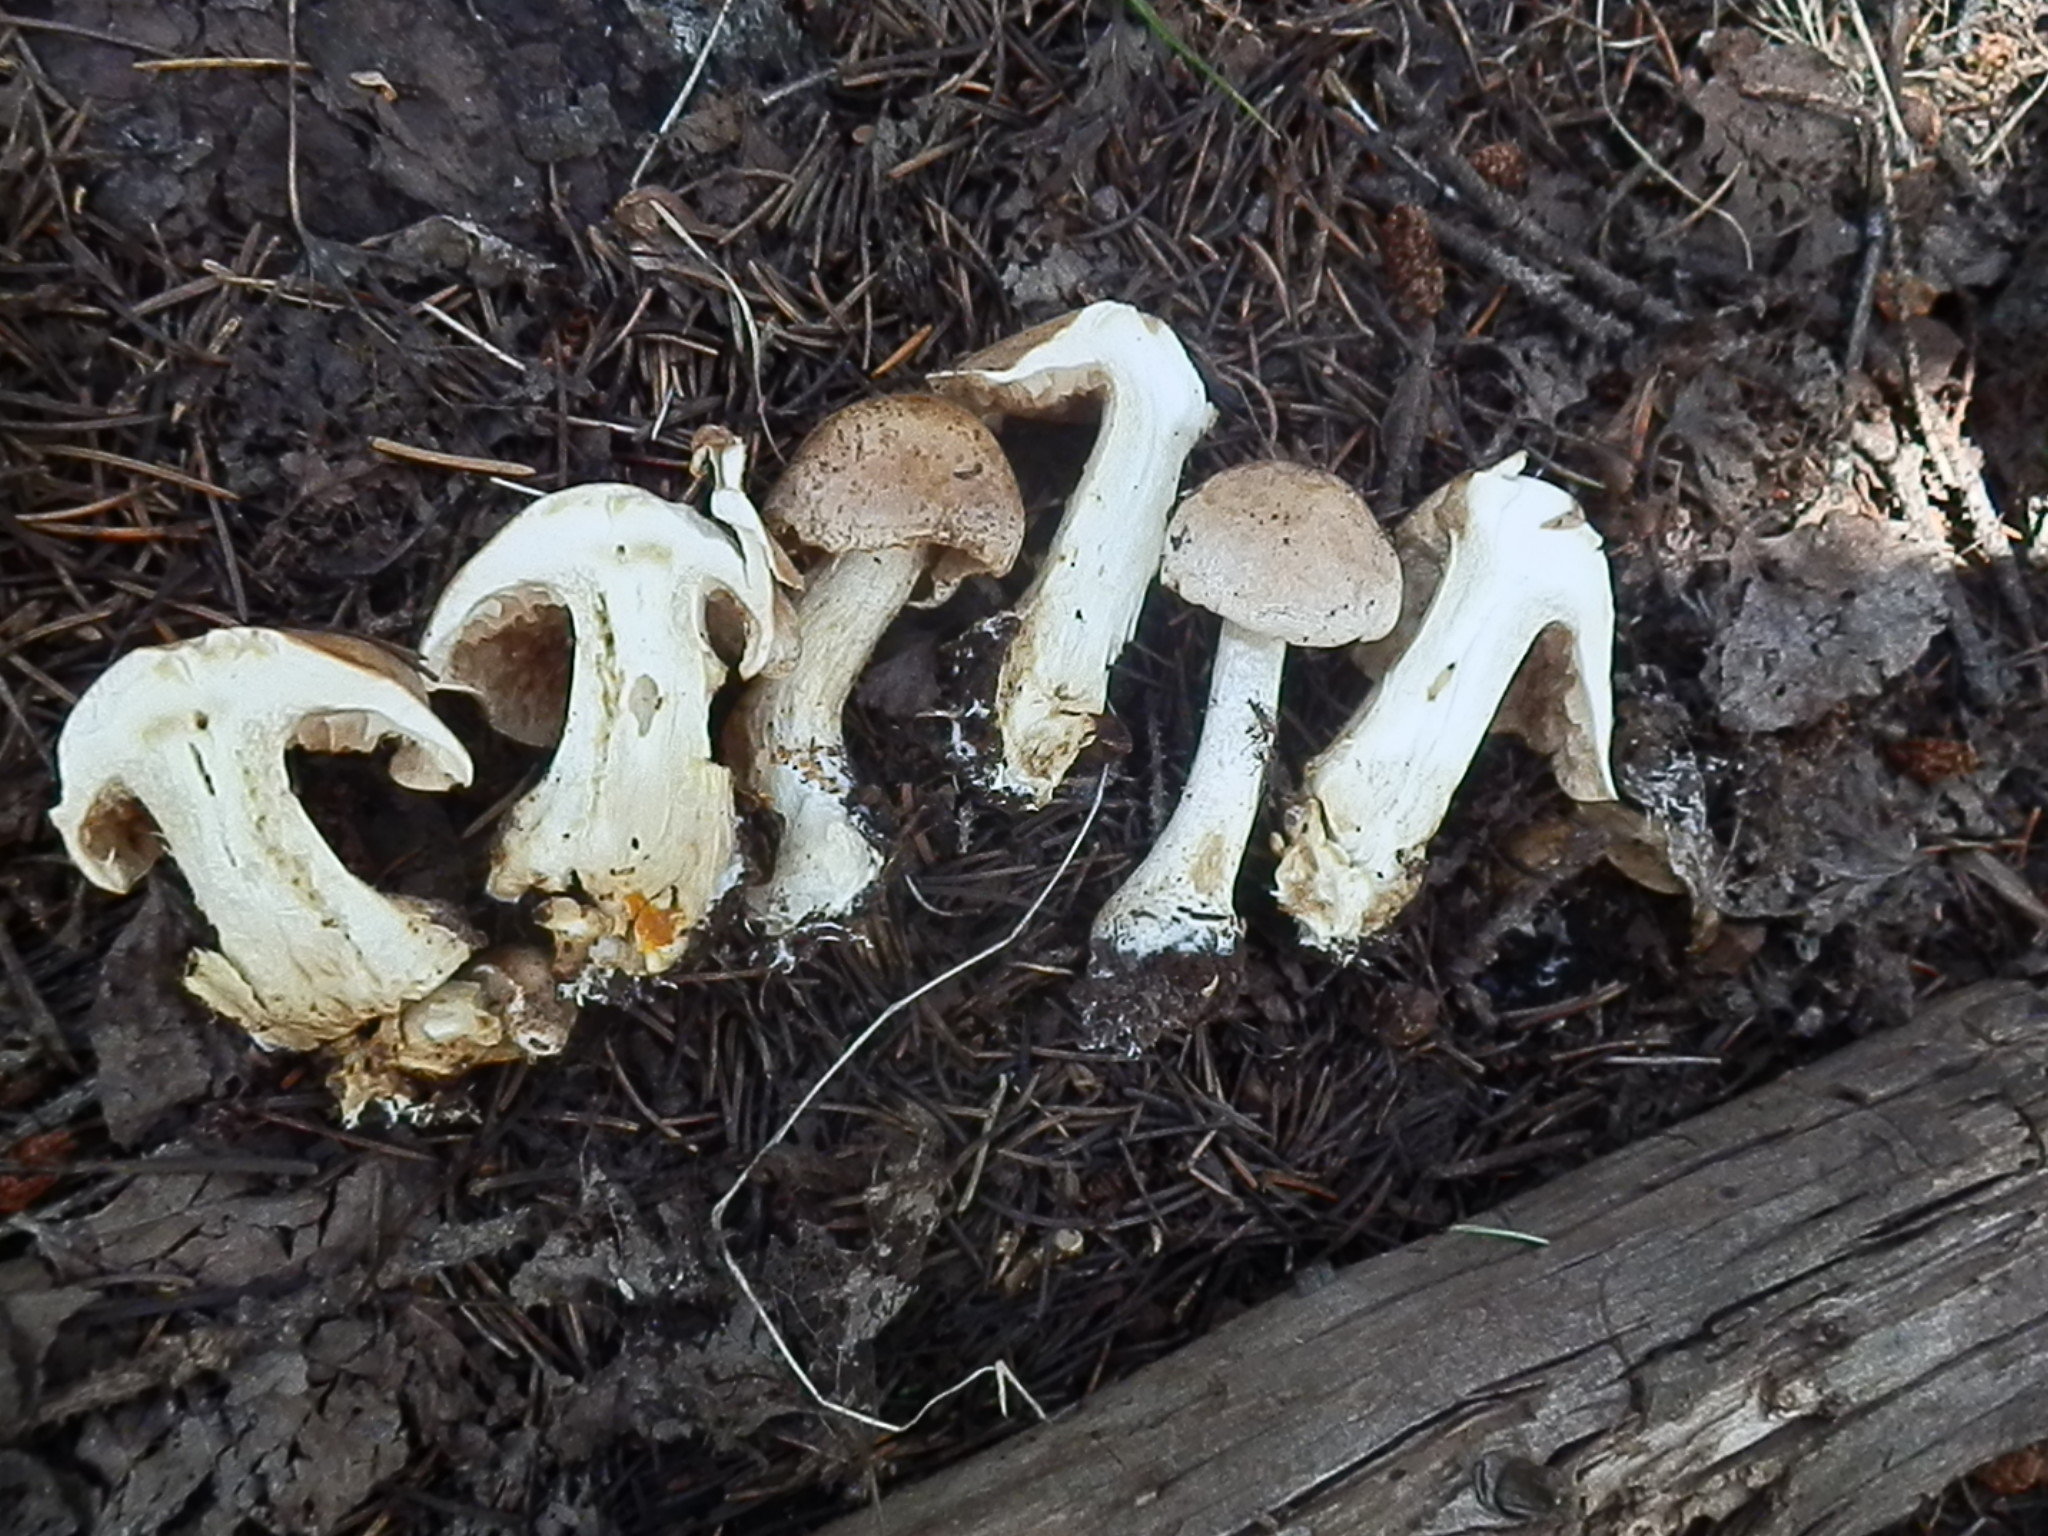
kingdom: Fungi
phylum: Basidiomycota
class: Agaricomycetes
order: Agaricales
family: Hymenogastraceae
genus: Hebeloma
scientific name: Hebeloma leucosarx
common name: Birch poisonpie
